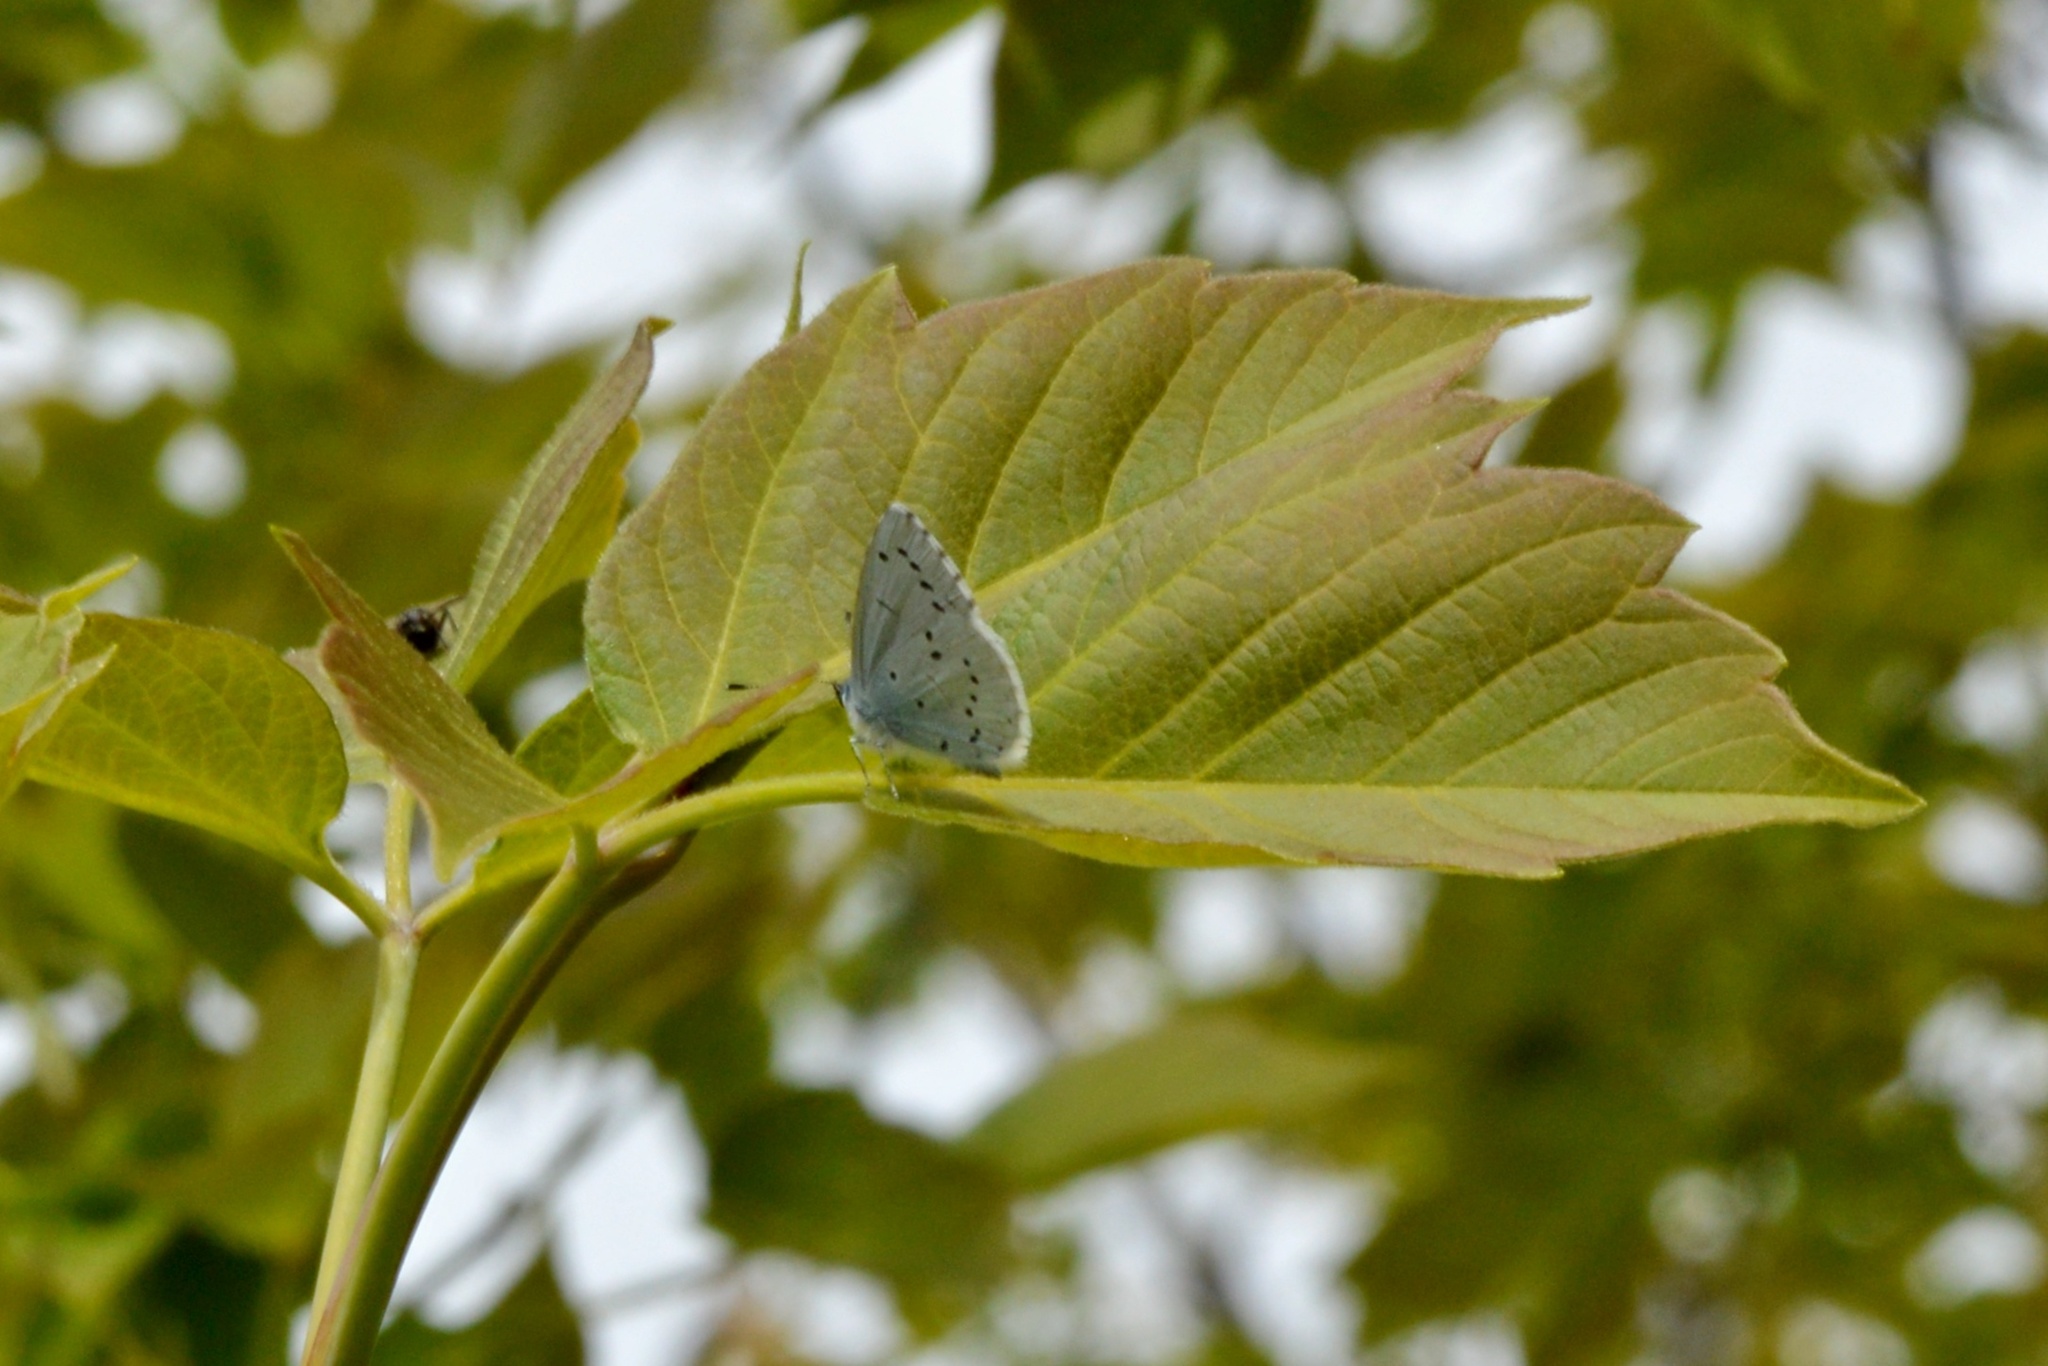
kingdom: Animalia
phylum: Arthropoda
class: Insecta
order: Lepidoptera
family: Lycaenidae
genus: Celastrina
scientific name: Celastrina argiolus
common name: Holly blue
